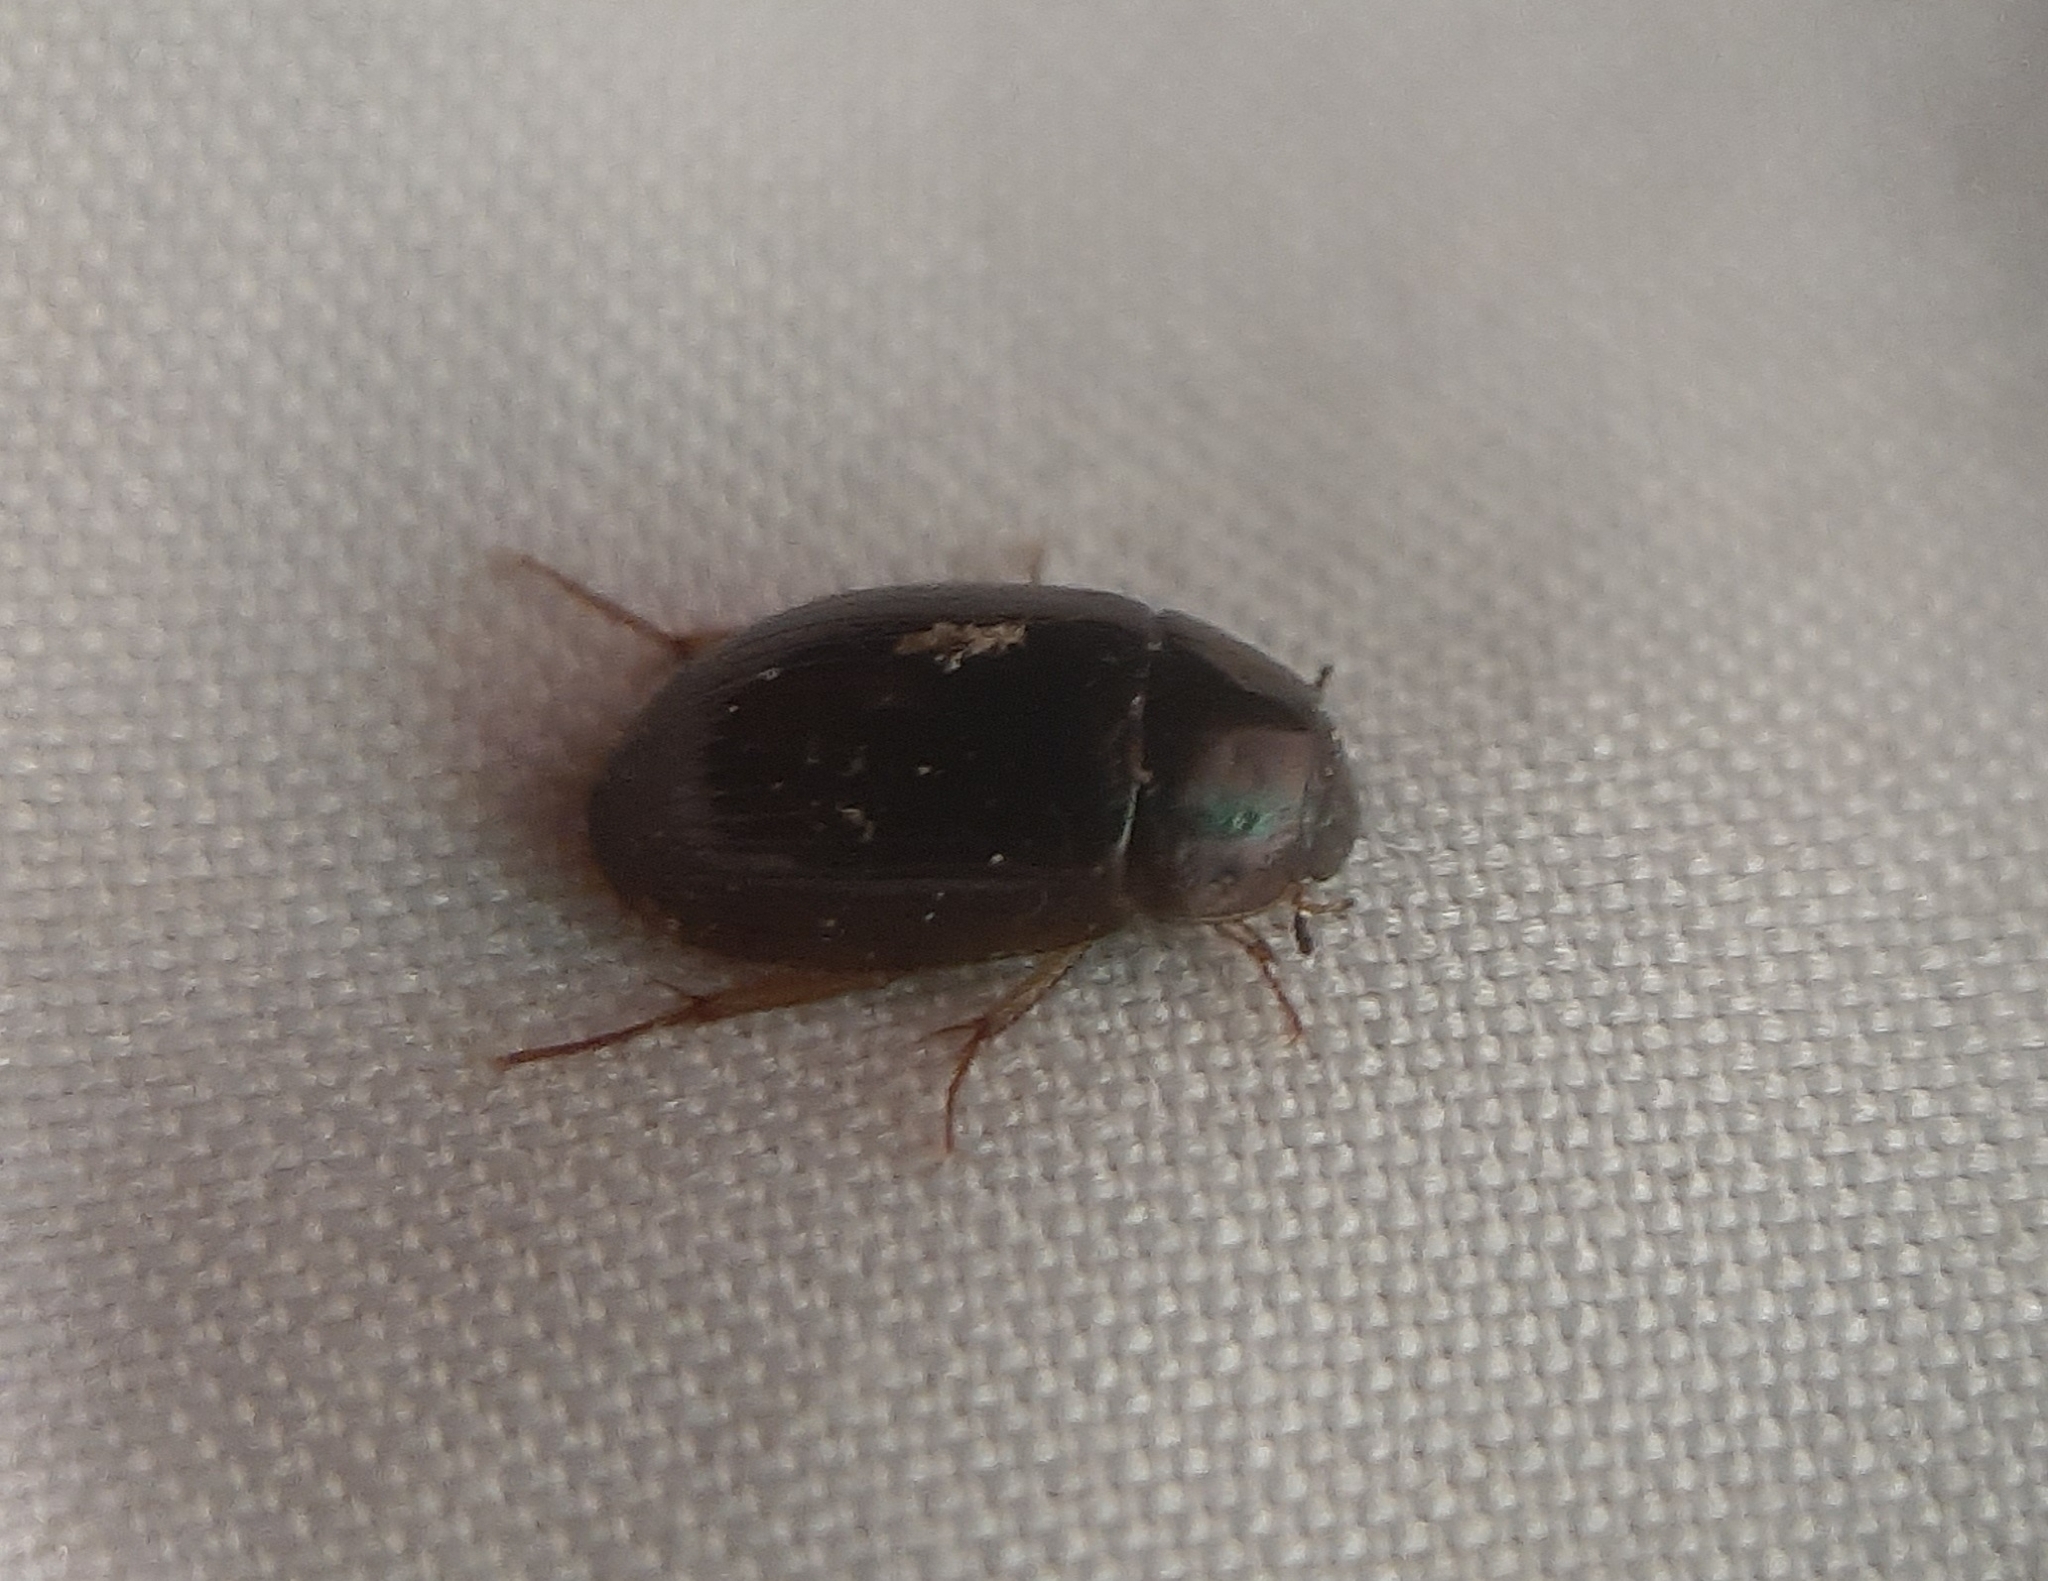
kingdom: Animalia
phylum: Arthropoda
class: Insecta
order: Coleoptera
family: Hydrophilidae
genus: Hydrobius
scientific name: Hydrobius fuscipes
